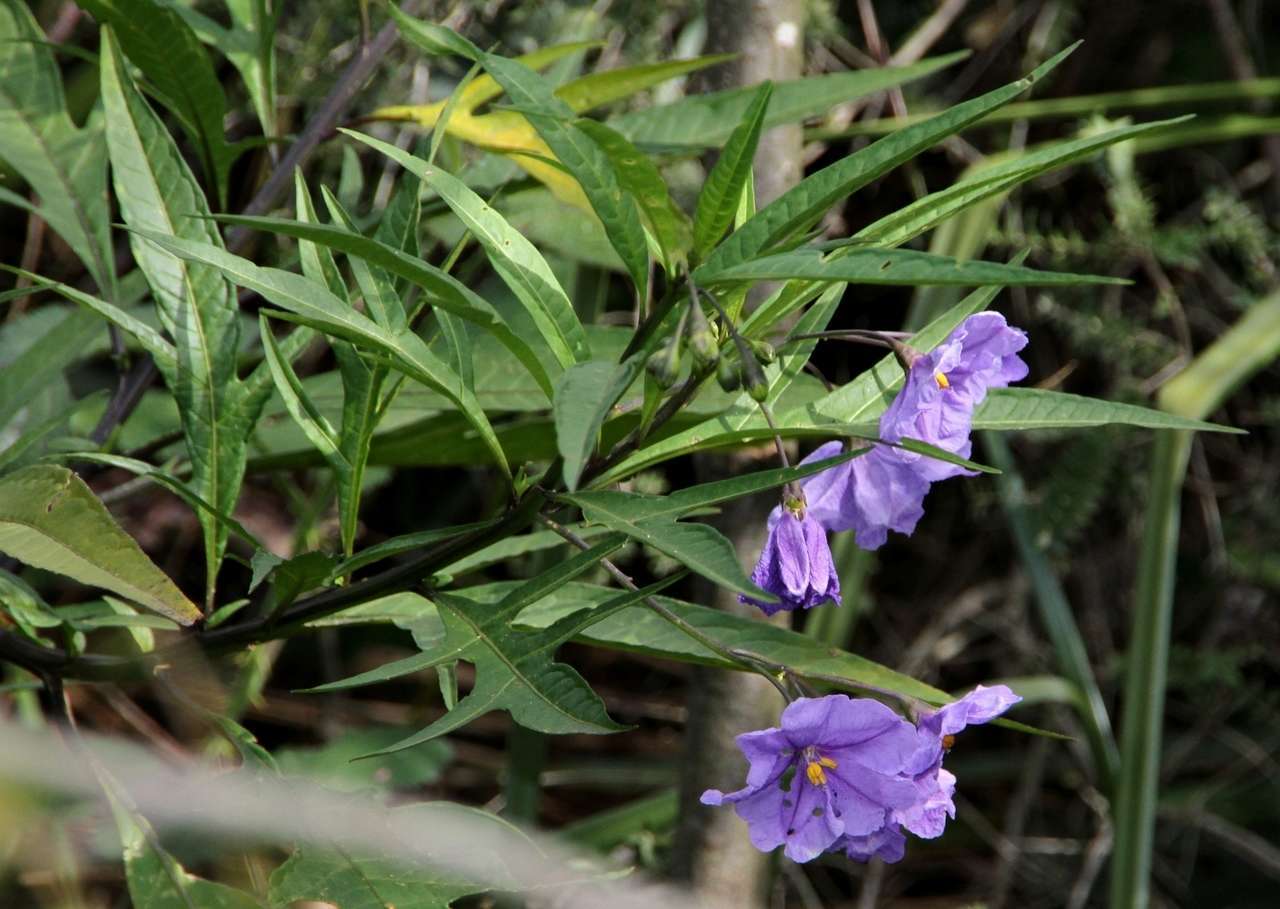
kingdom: Plantae
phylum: Tracheophyta
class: Magnoliopsida
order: Solanales
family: Solanaceae
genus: Solanum
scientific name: Solanum laciniatum
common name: Kangaroo-apple
